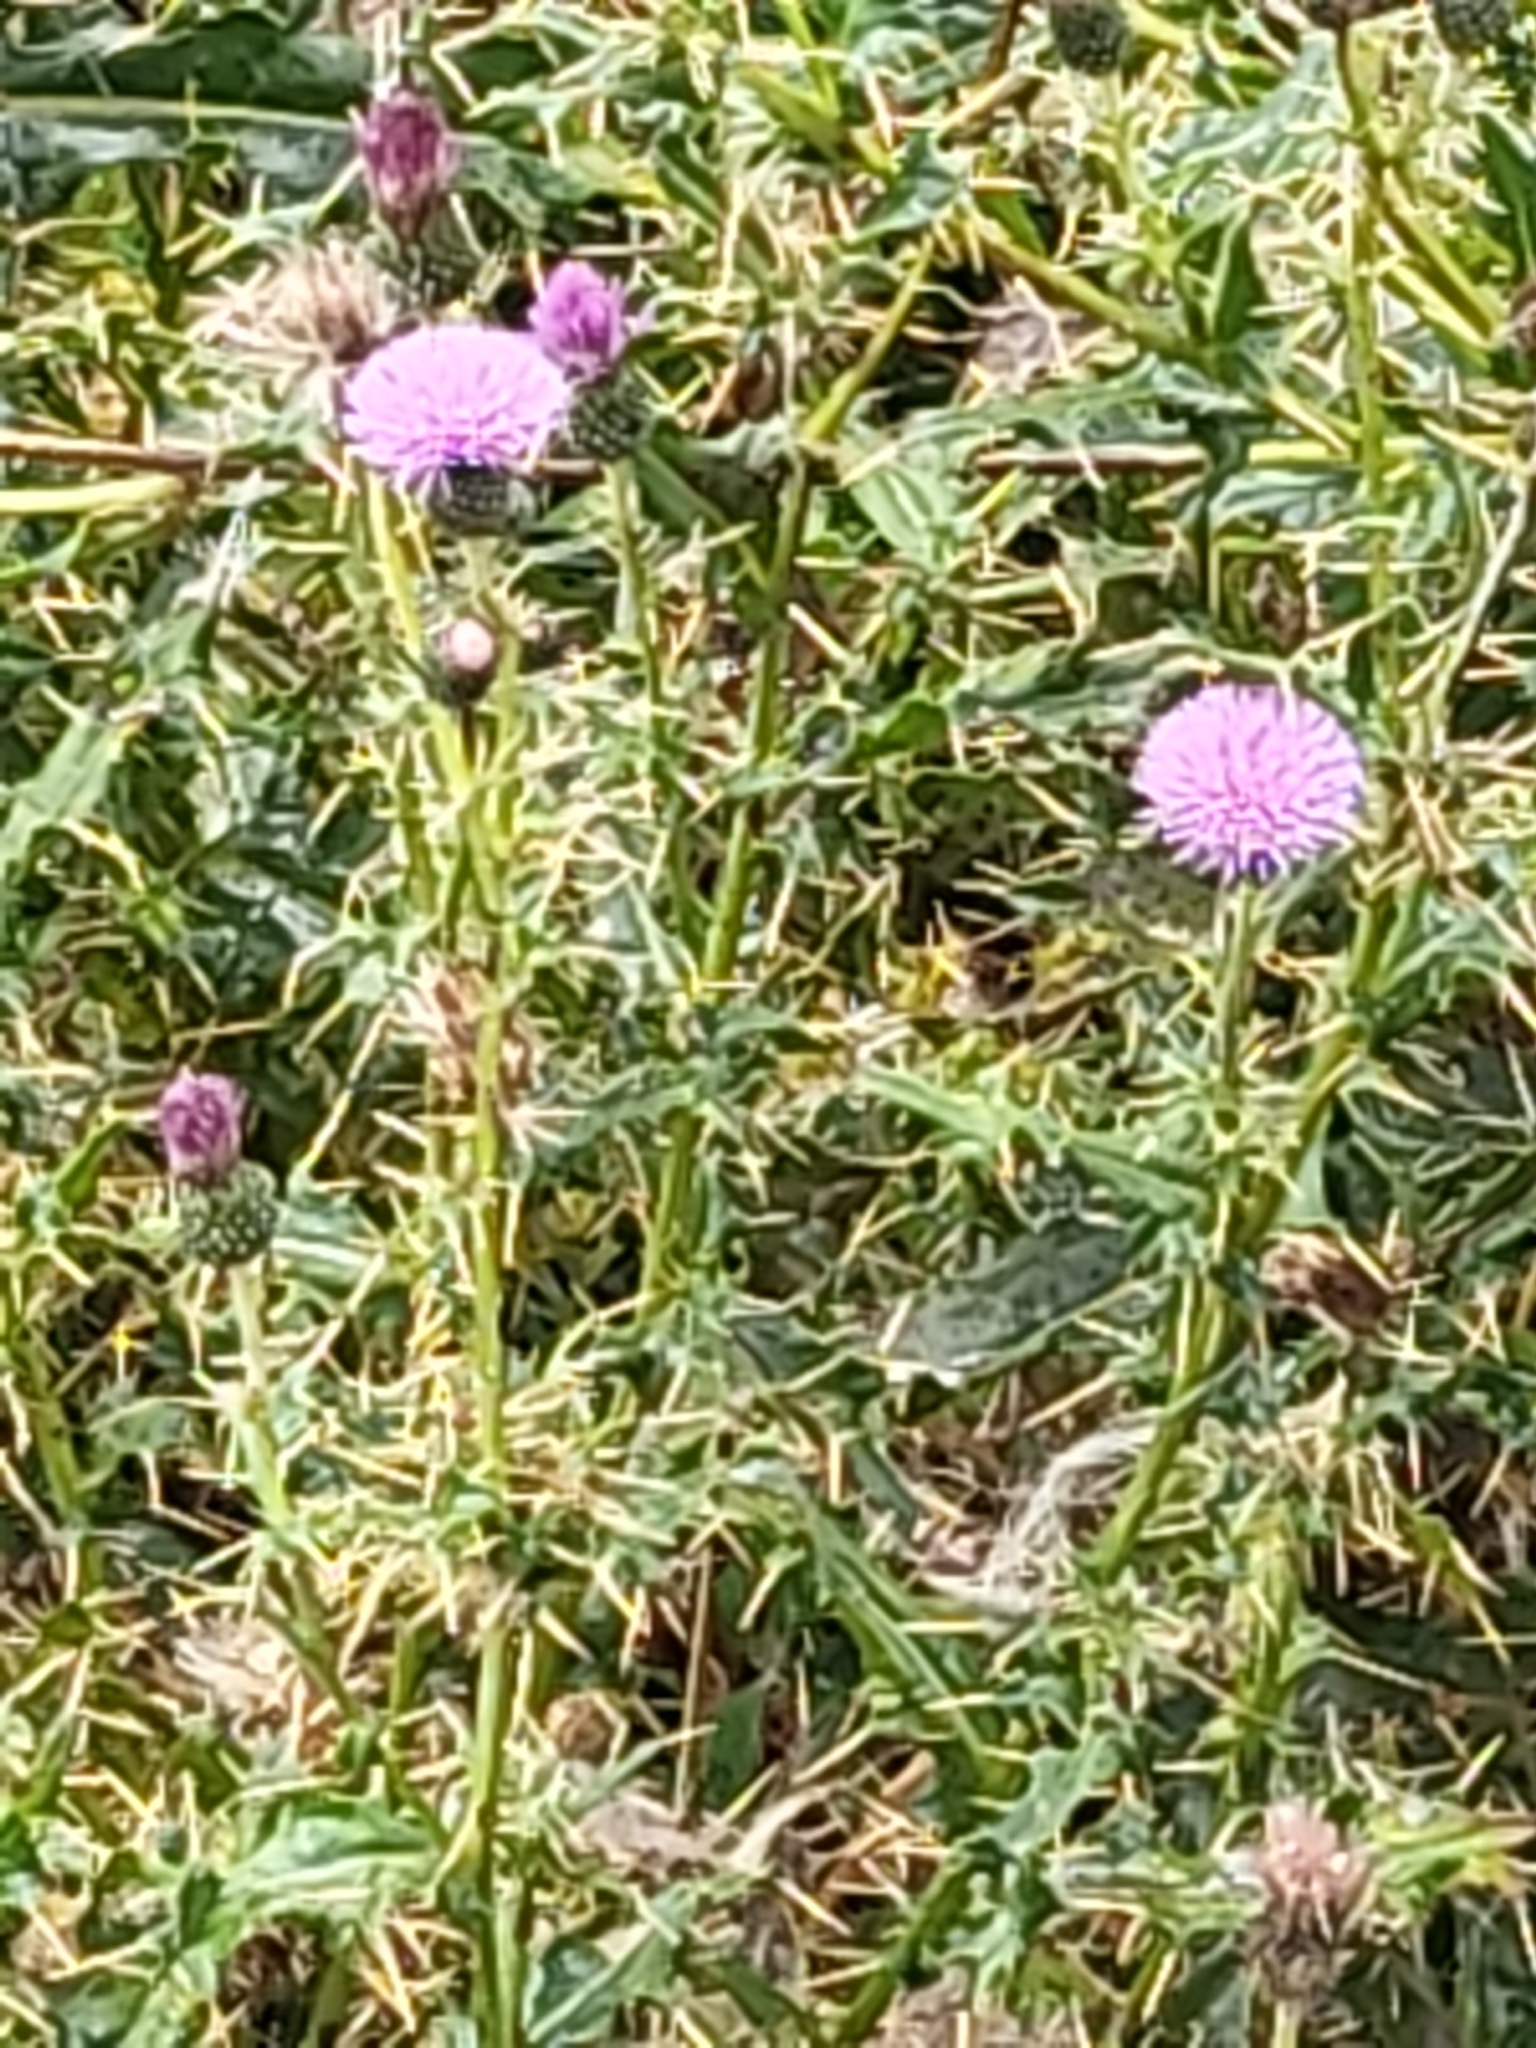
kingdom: Plantae
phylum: Tracheophyta
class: Magnoliopsida
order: Asterales
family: Asteraceae
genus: Cirsium
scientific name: Cirsium arvense
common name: Creeping thistle
